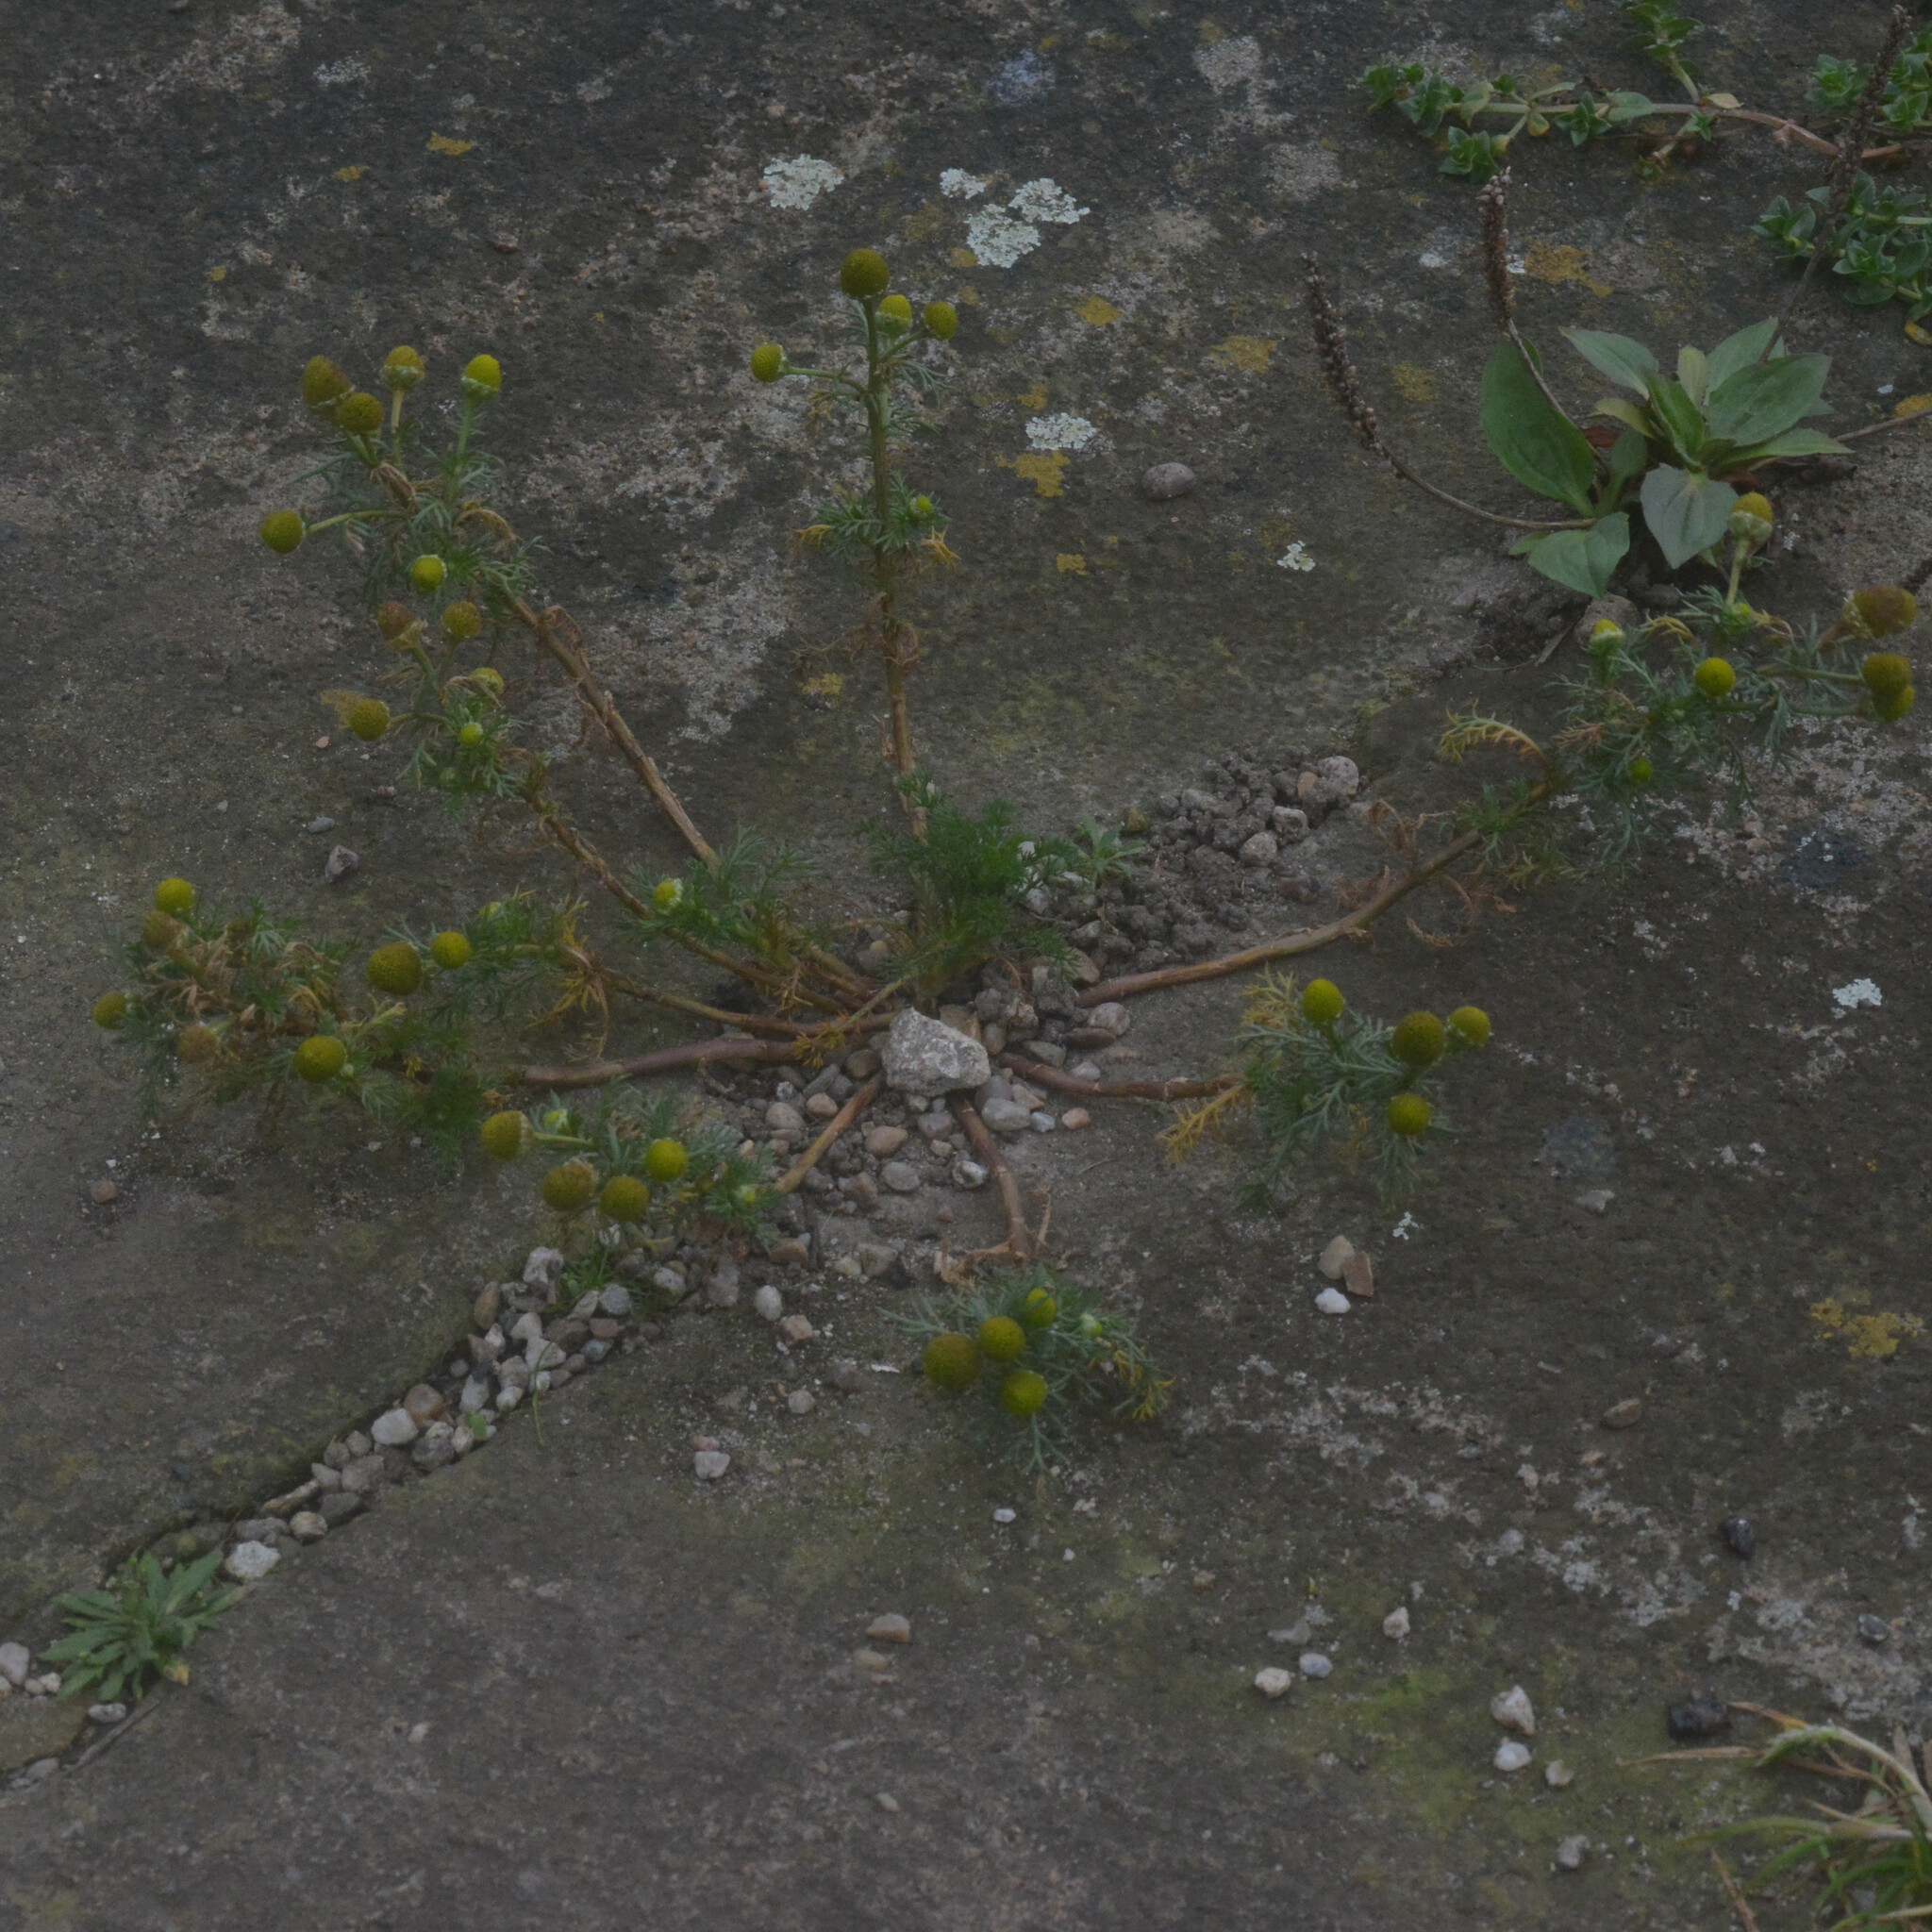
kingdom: Plantae
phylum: Tracheophyta
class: Magnoliopsida
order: Asterales
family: Asteraceae
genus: Matricaria
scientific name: Matricaria discoidea
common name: Disc mayweed
